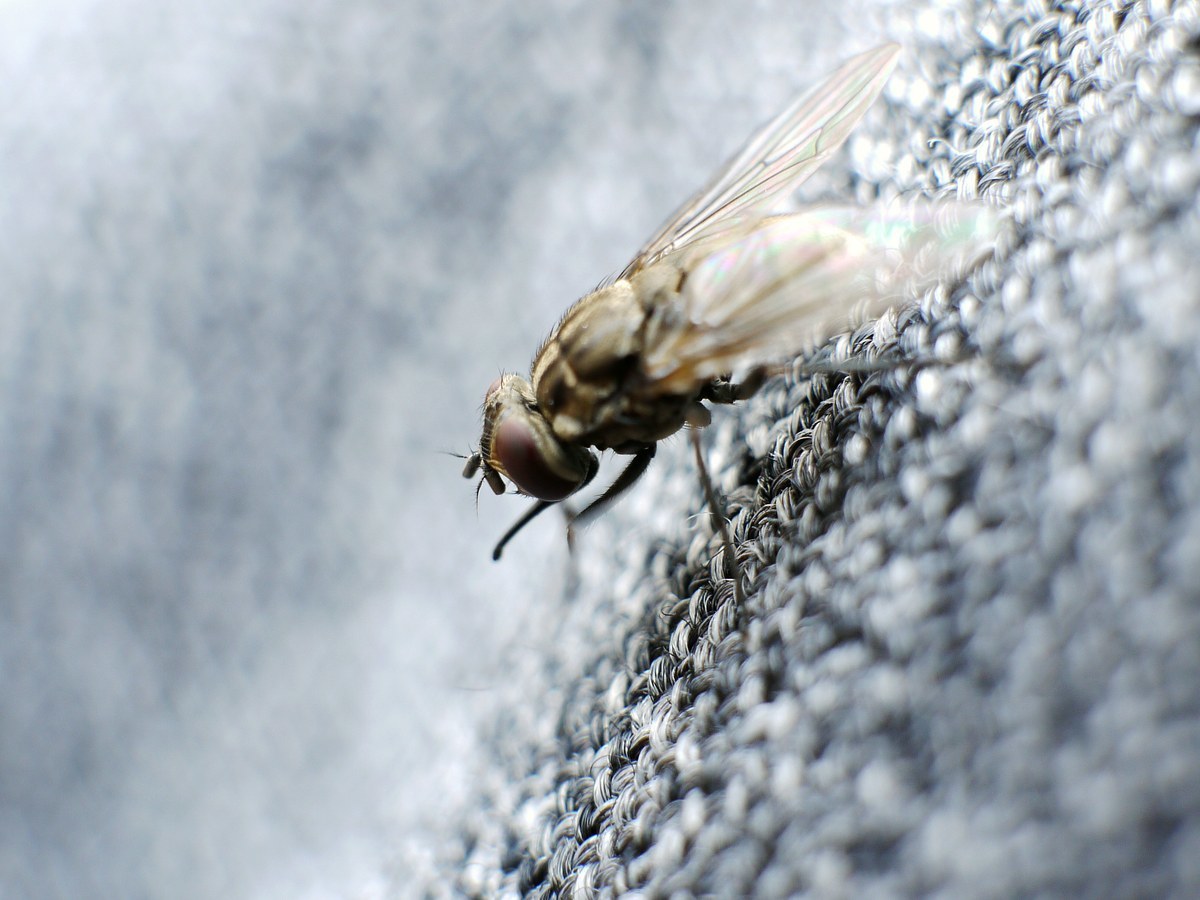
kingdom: Animalia
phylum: Arthropoda
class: Insecta
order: Diptera
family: Muscidae
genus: Stomoxys
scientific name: Stomoxys calcitrans
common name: Stable fly
